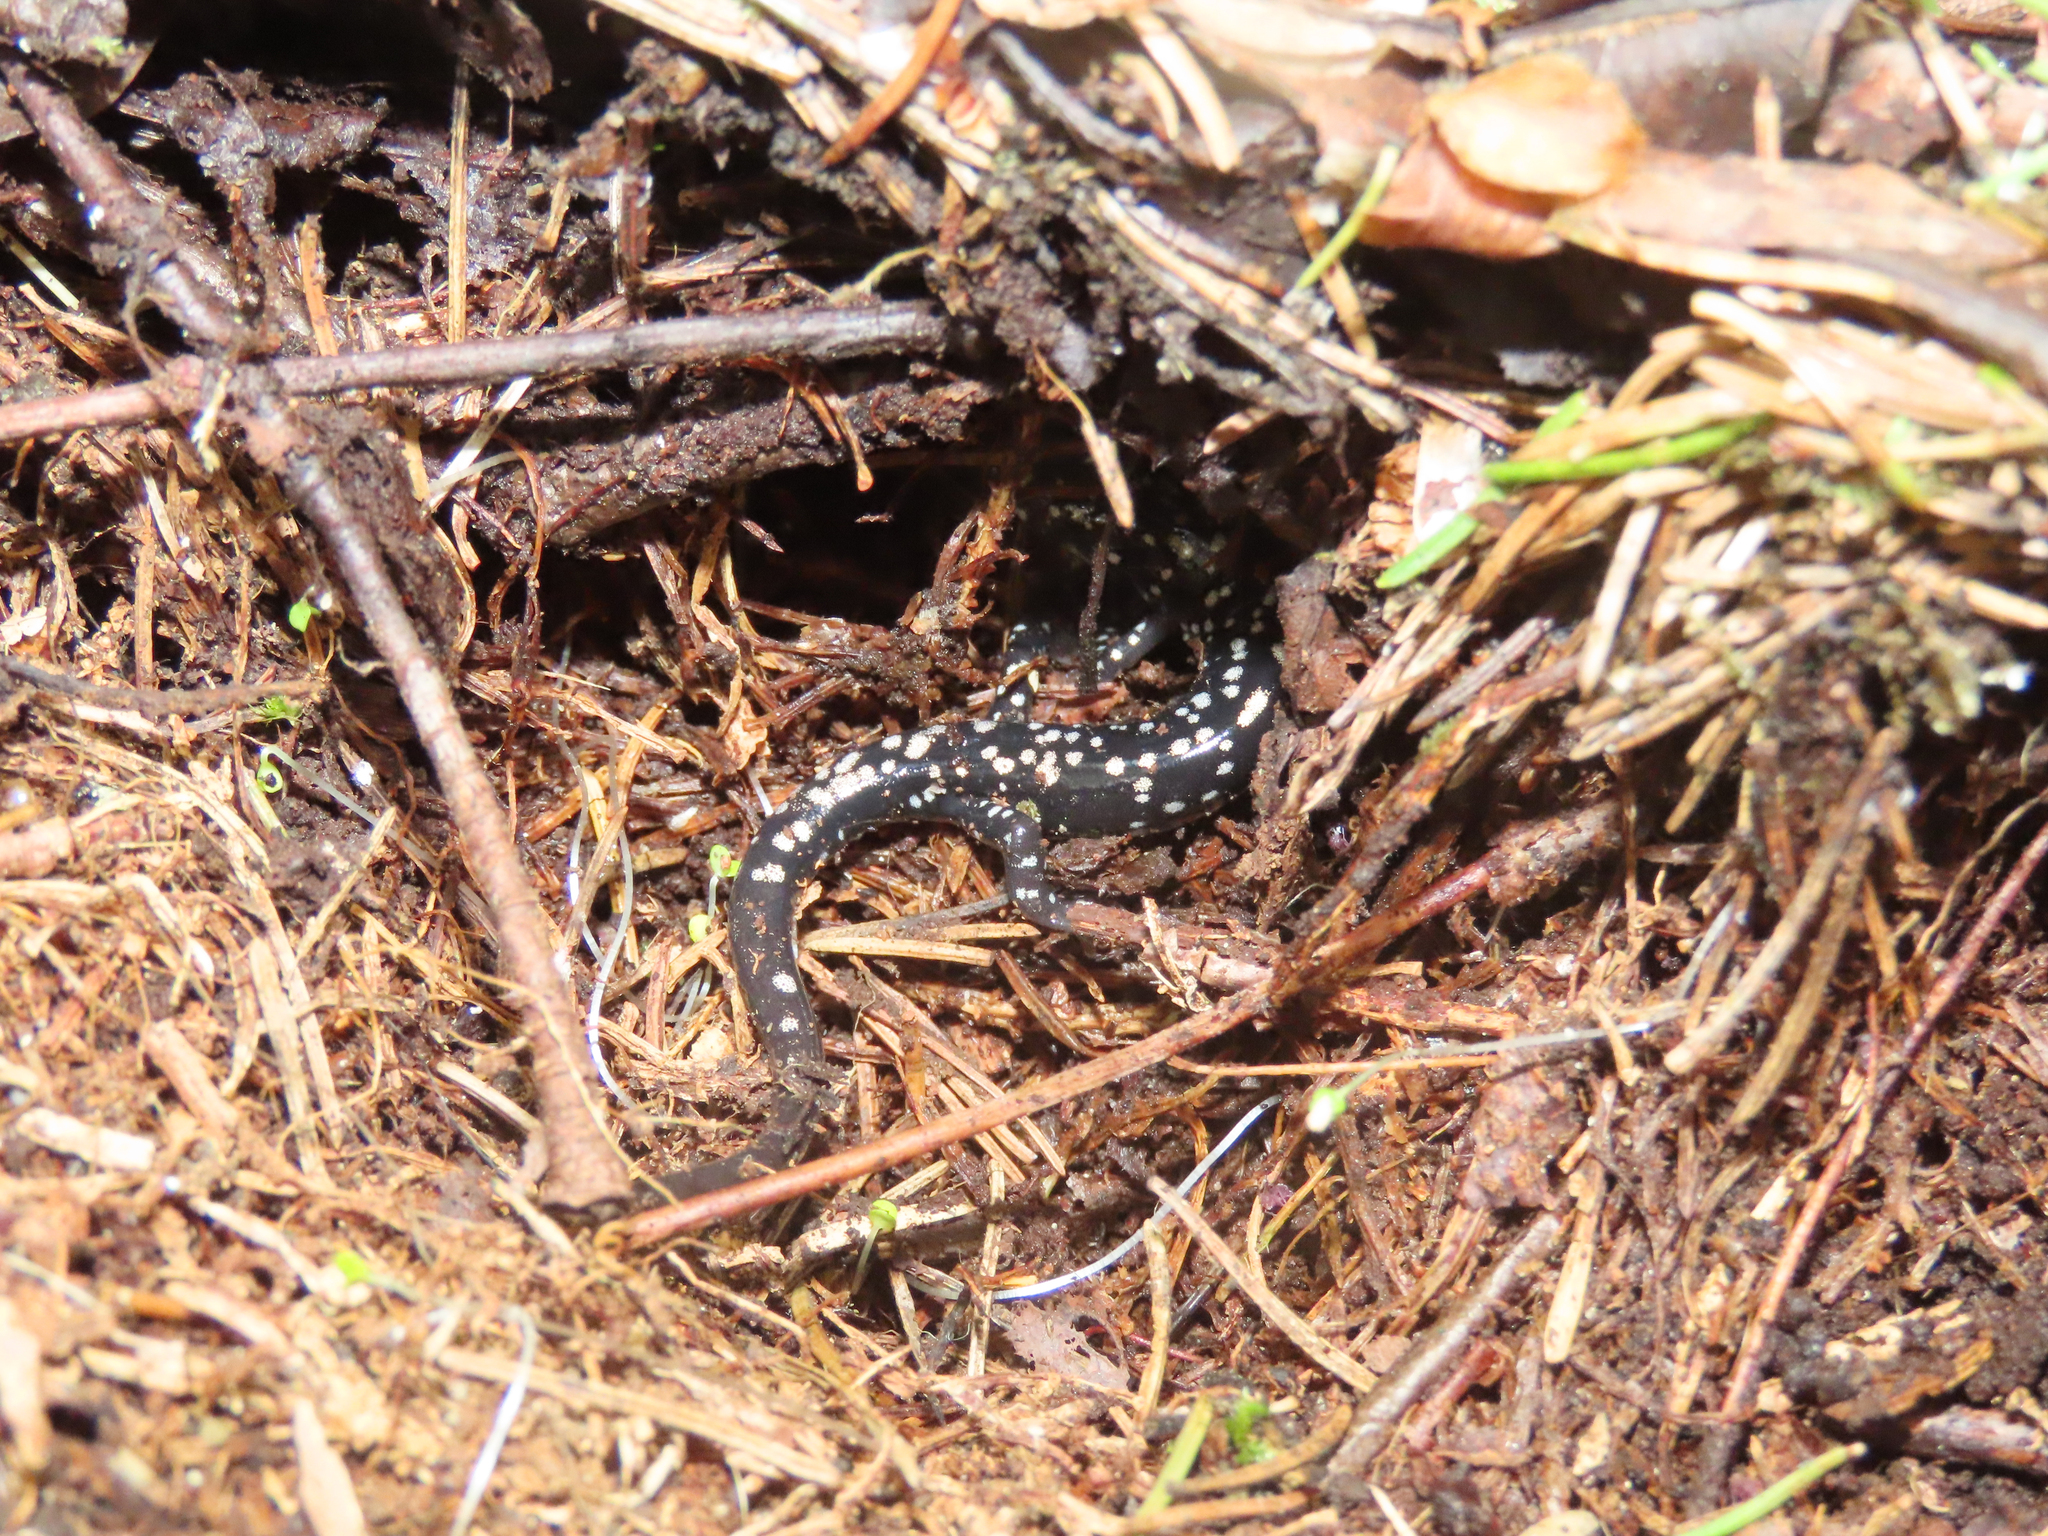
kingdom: Animalia
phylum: Chordata
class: Amphibia
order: Caudata
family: Plethodontidae
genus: Plethodon
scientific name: Plethodon glutinosus
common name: Northern slimy salamander
